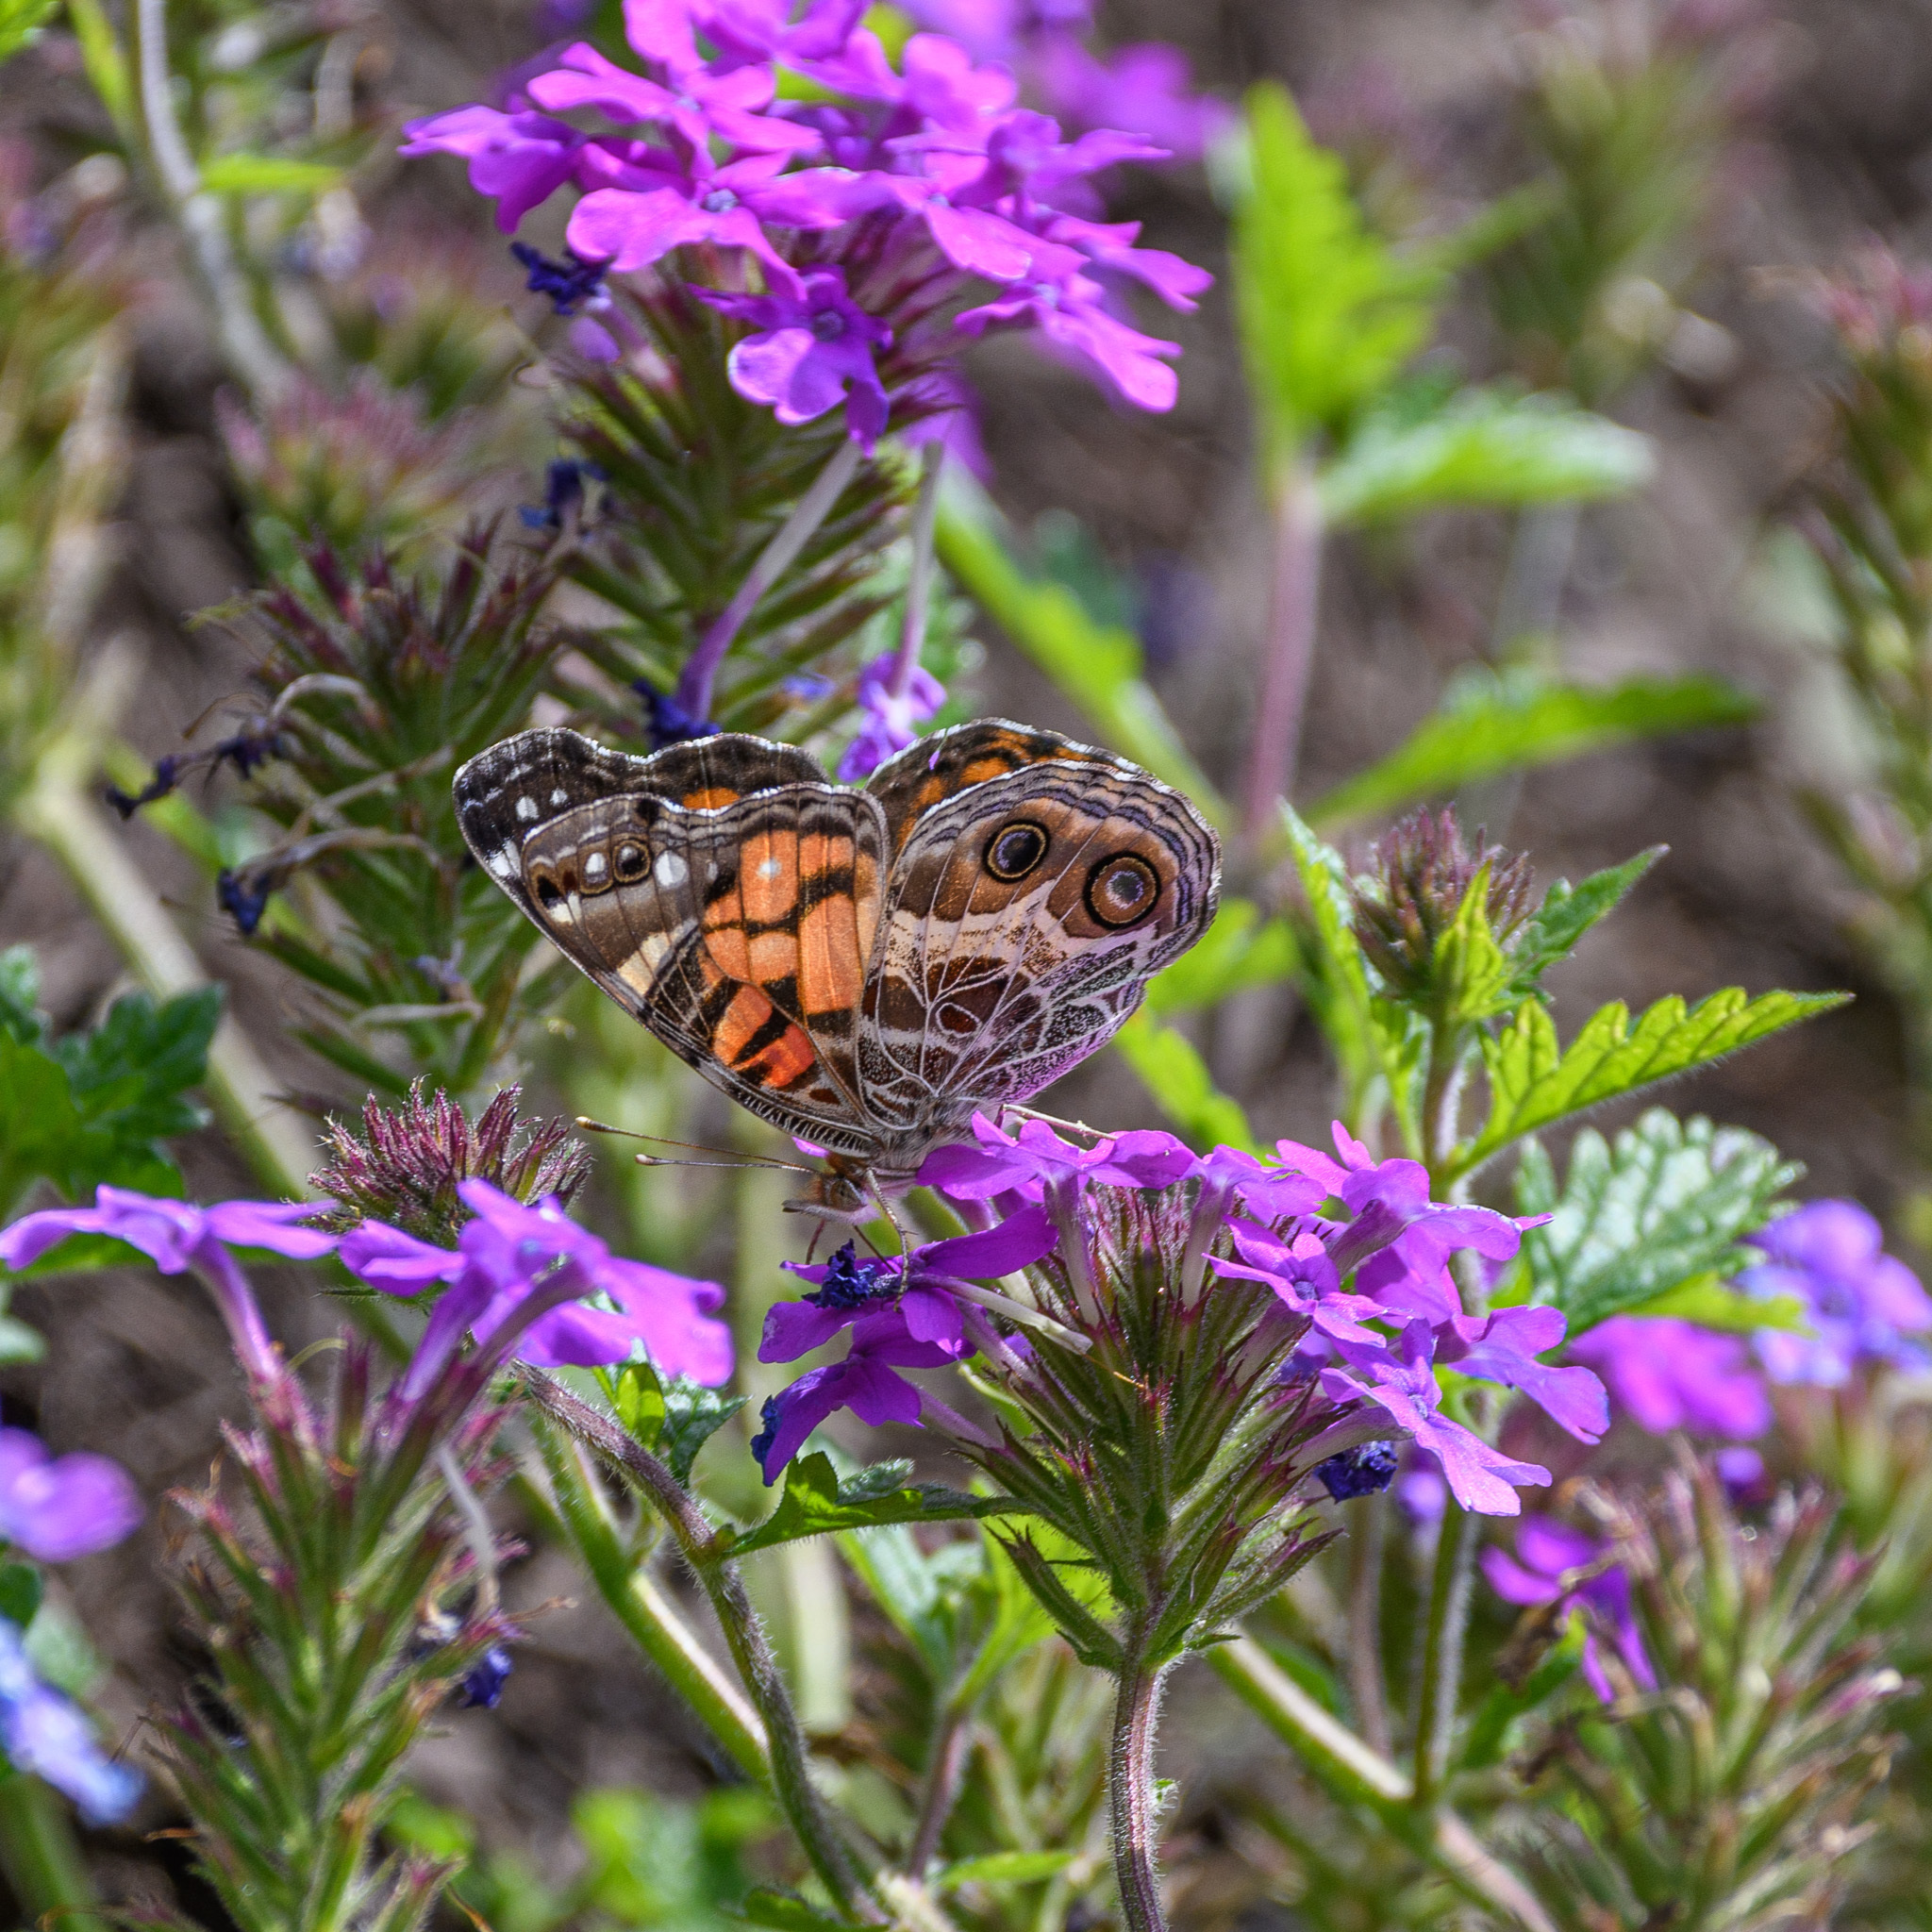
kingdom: Animalia
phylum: Arthropoda
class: Insecta
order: Lepidoptera
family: Nymphalidae
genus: Vanessa
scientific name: Vanessa virginiensis
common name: American lady
